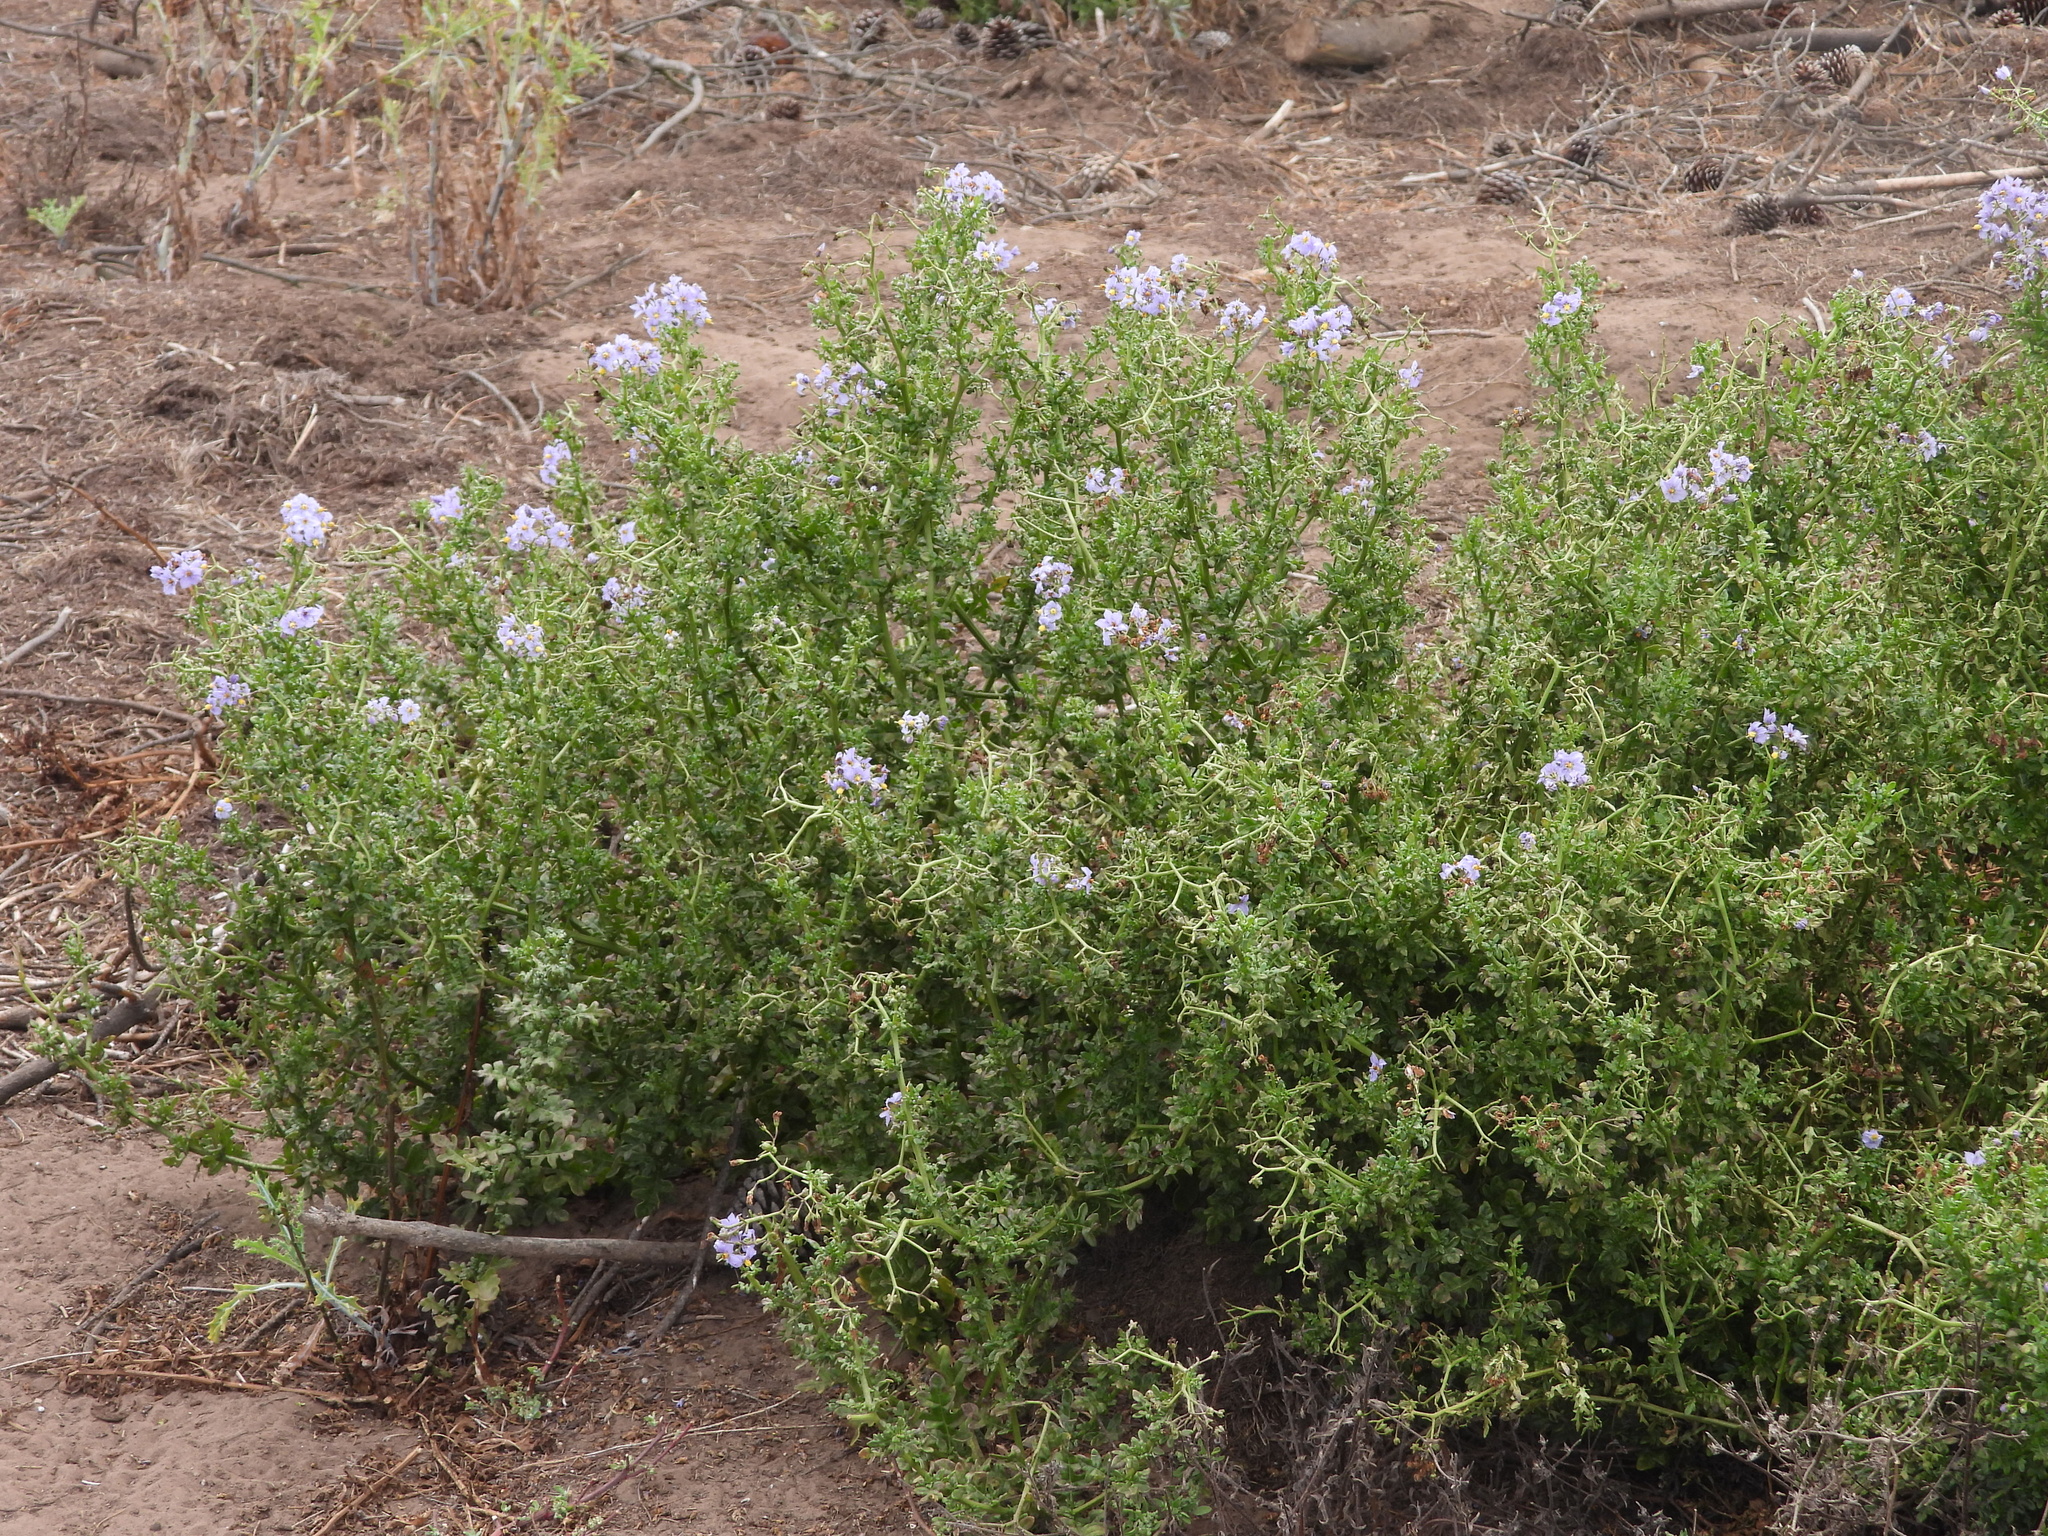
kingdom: Plantae
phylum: Tracheophyta
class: Magnoliopsida
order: Solanales
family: Solanaceae
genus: Solanum
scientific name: Solanum pinnatum
